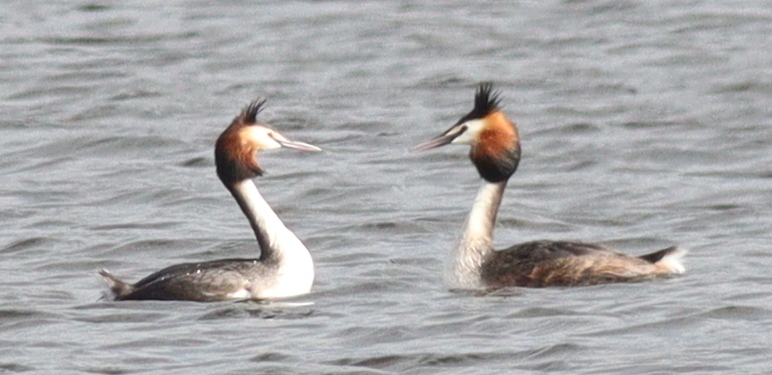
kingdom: Animalia
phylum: Chordata
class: Aves
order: Podicipediformes
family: Podicipedidae
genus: Podiceps
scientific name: Podiceps cristatus
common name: Great crested grebe
